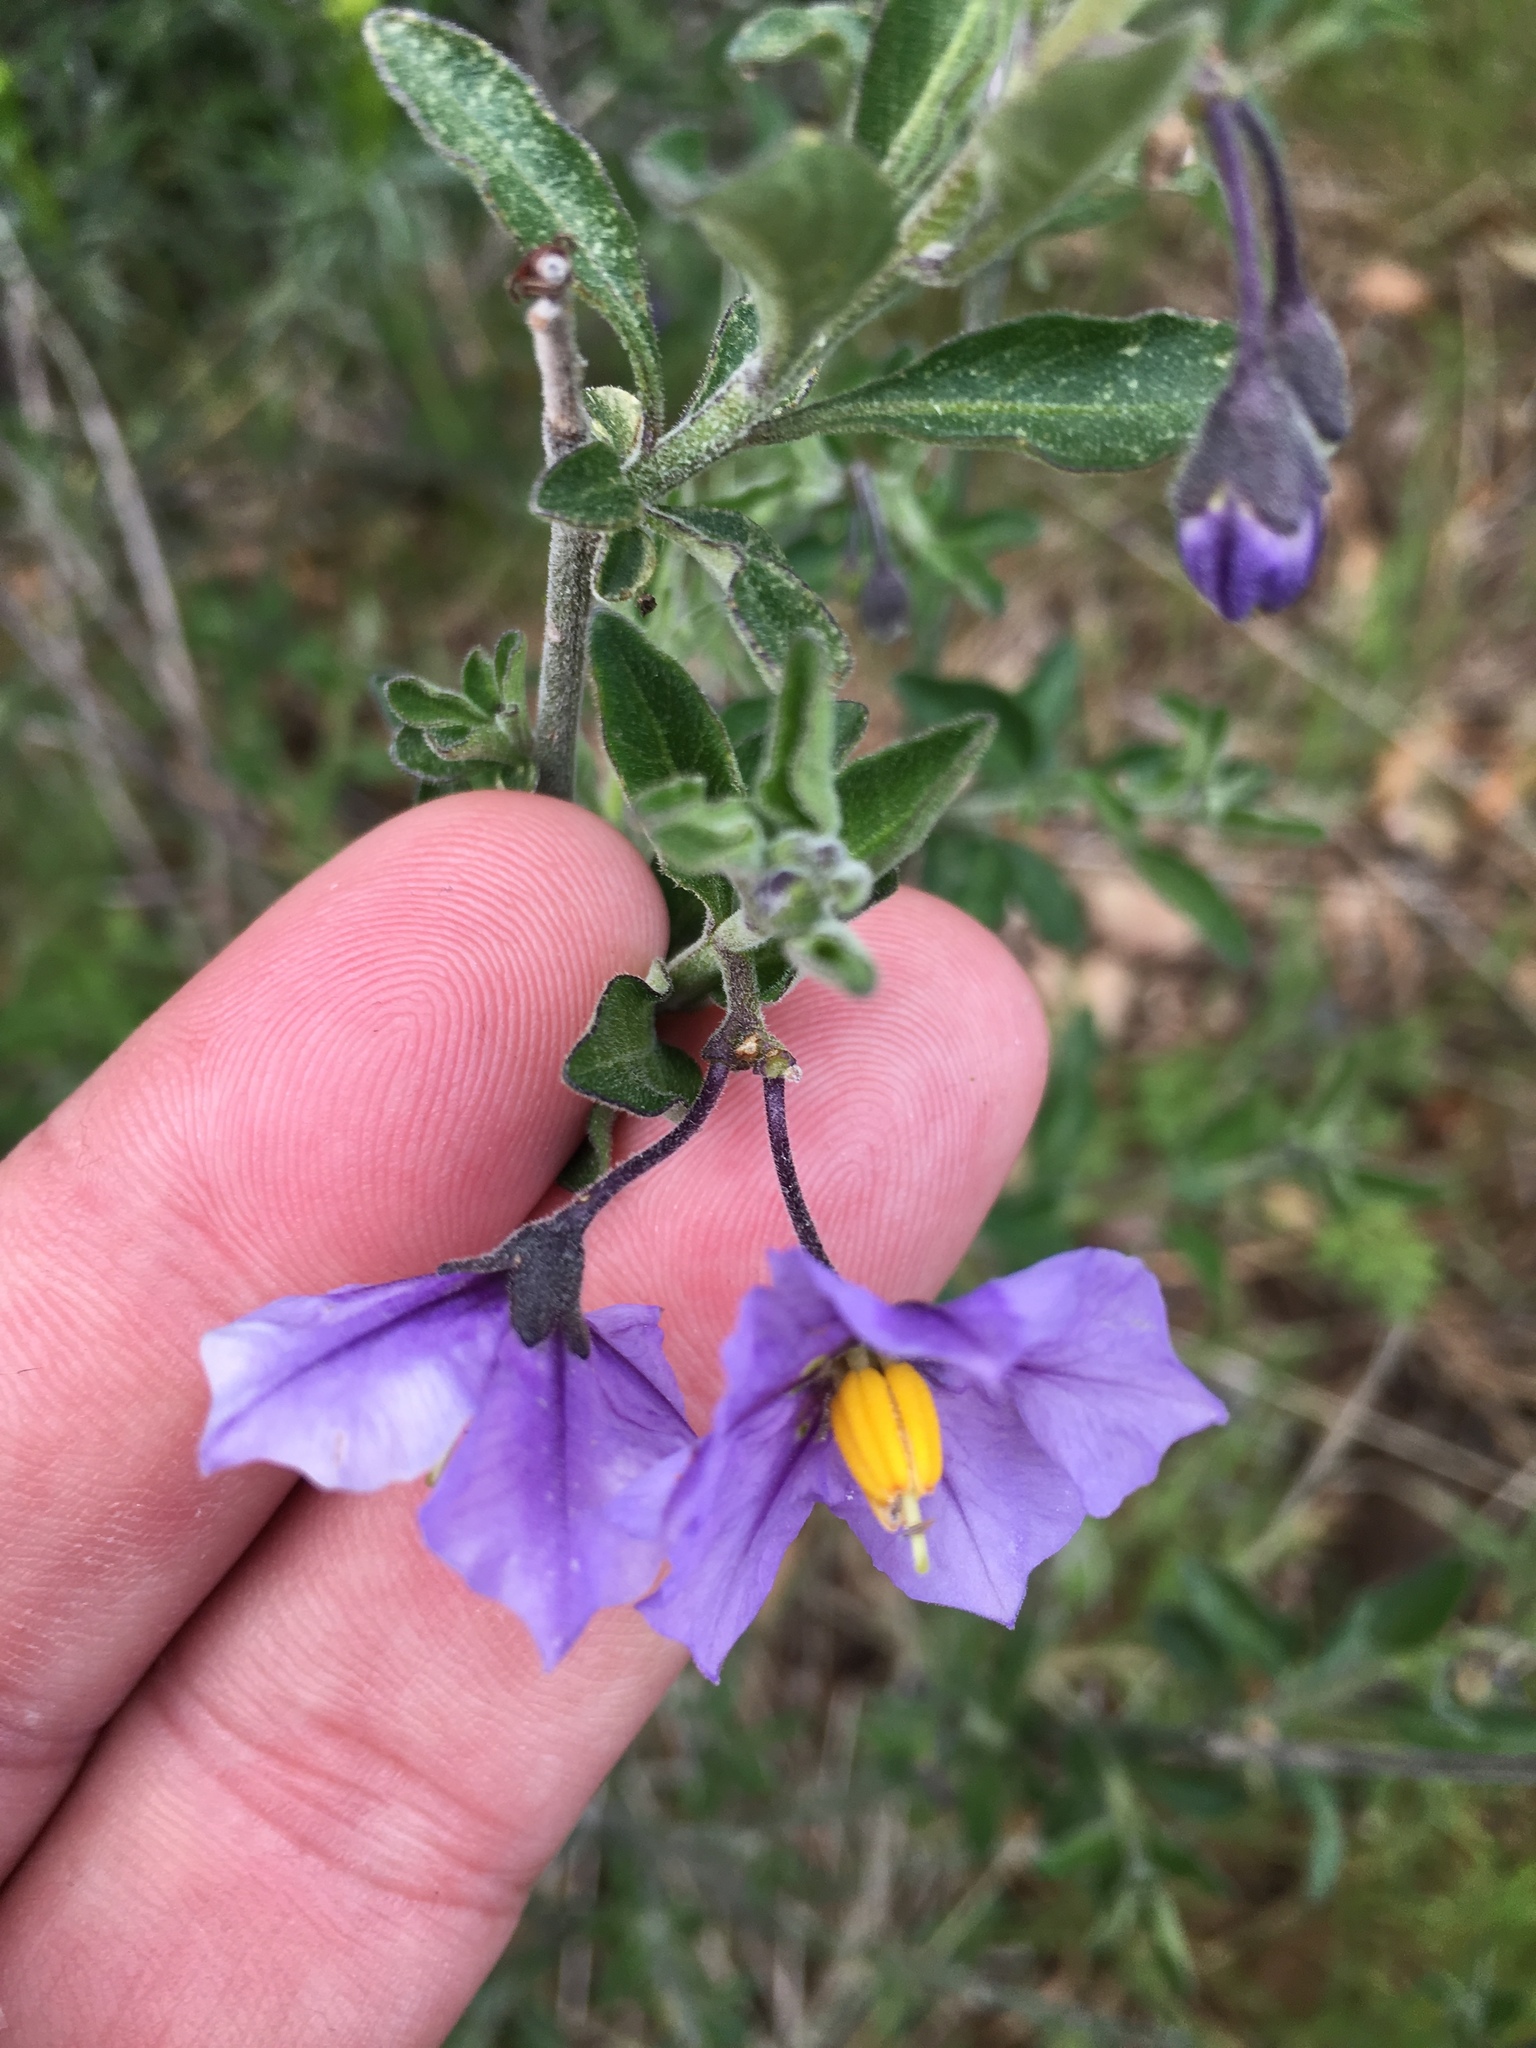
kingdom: Plantae
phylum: Tracheophyta
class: Magnoliopsida
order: Solanales
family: Solanaceae
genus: Solanum
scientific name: Solanum umbelliferum
